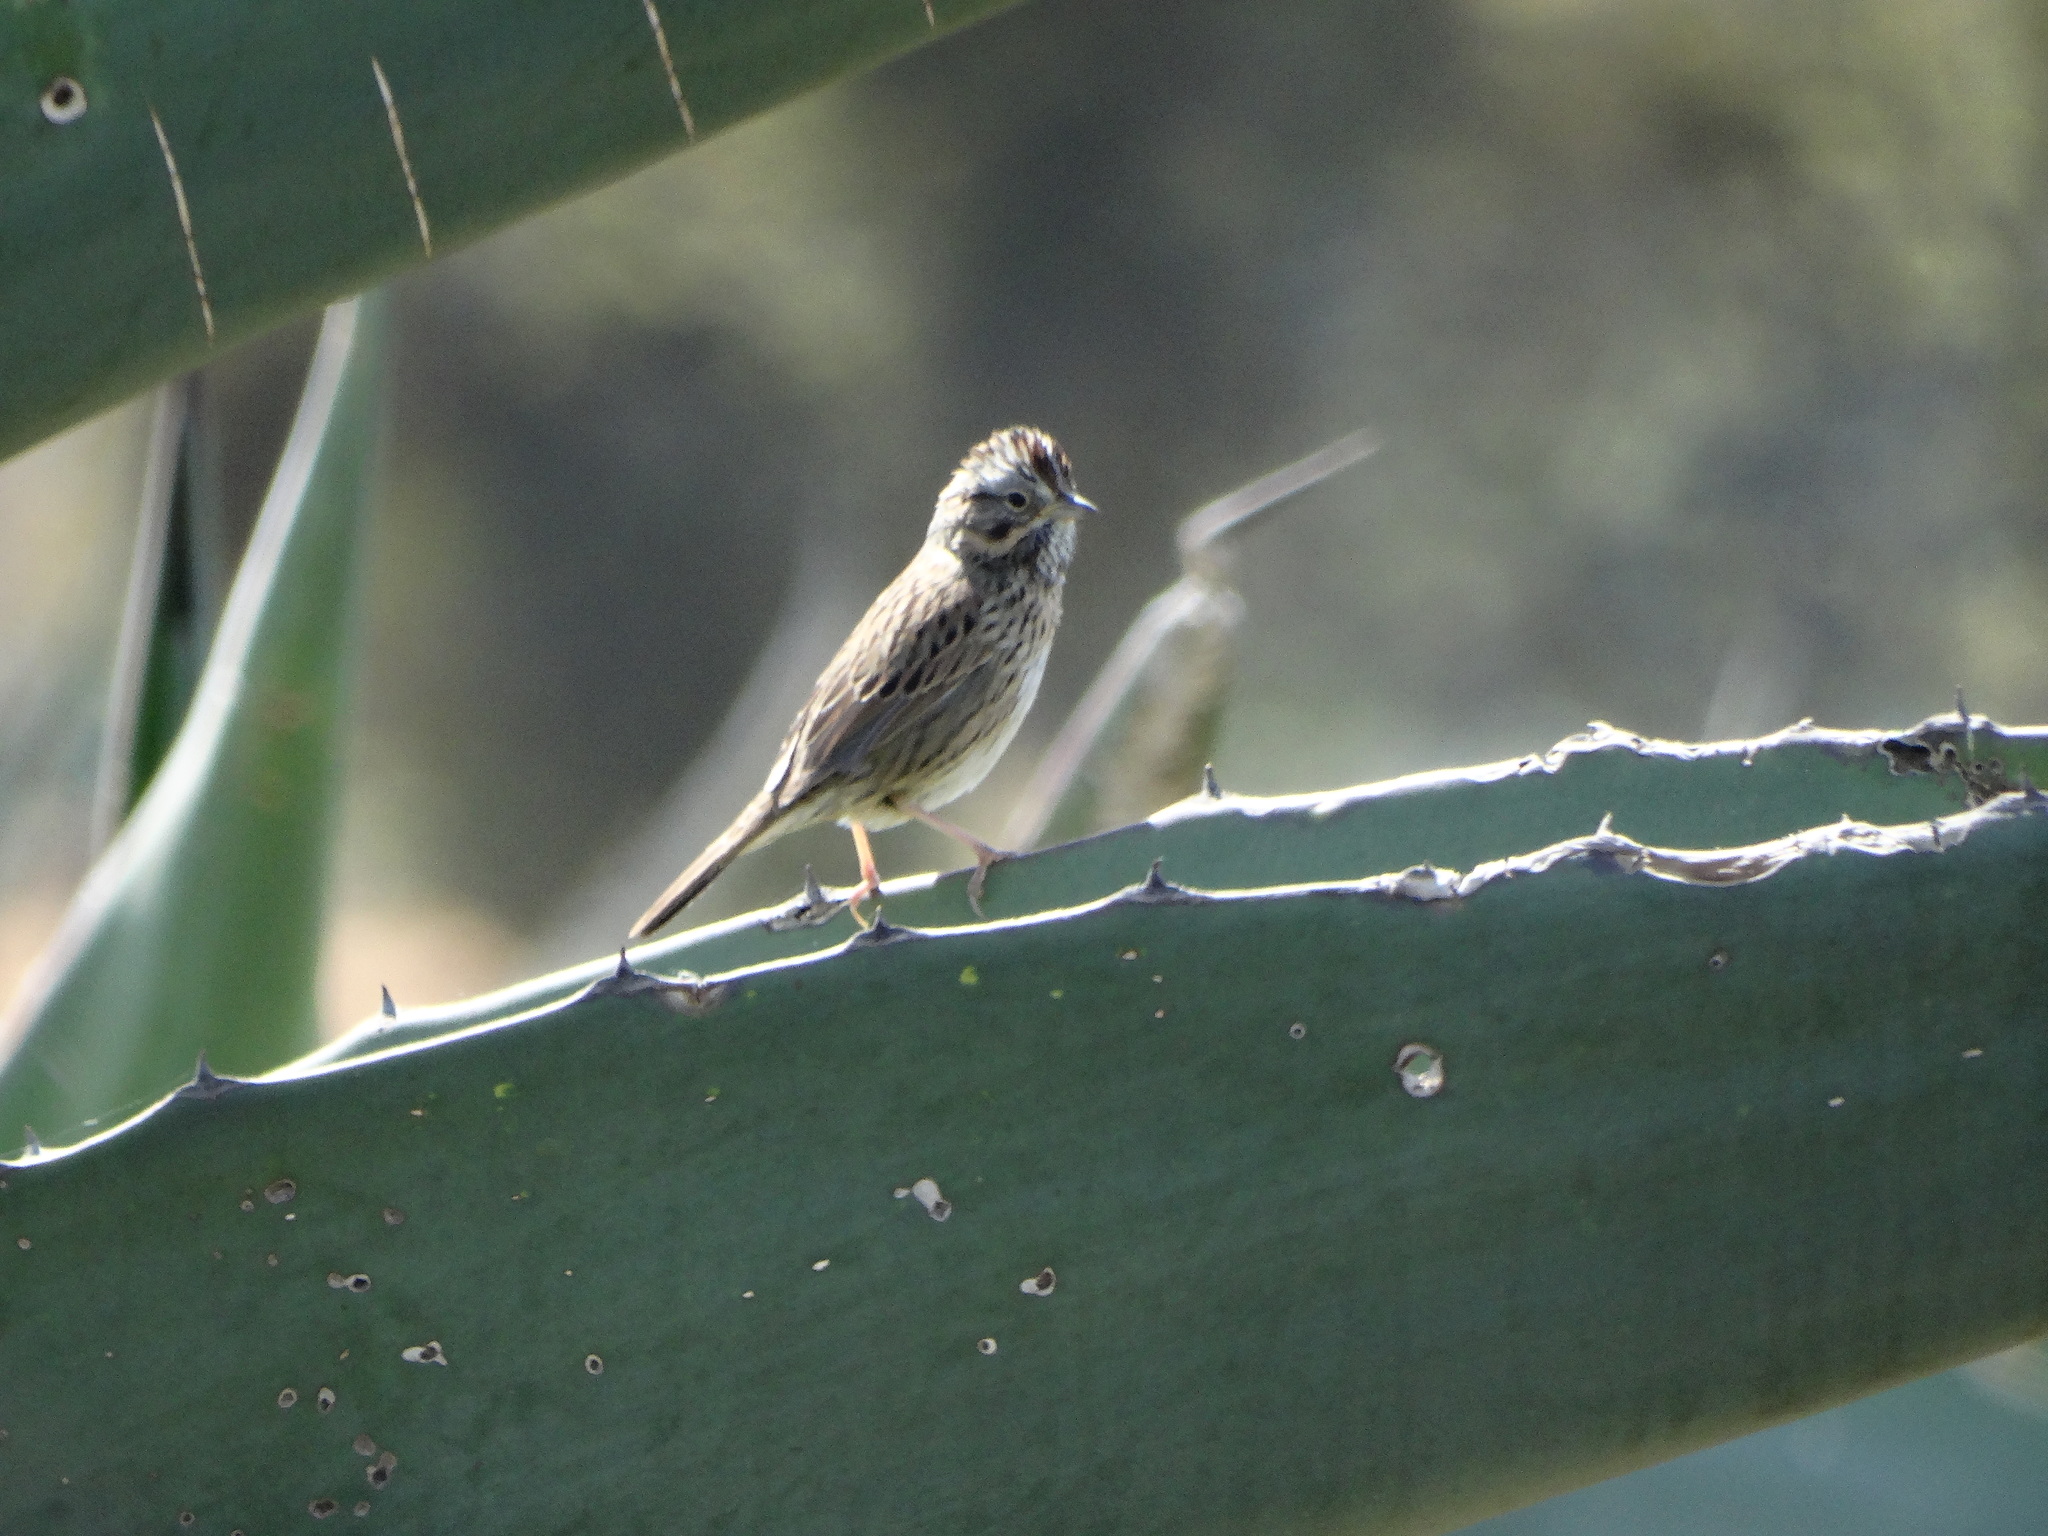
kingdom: Animalia
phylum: Chordata
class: Aves
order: Passeriformes
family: Passerellidae
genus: Melospiza
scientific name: Melospiza lincolnii
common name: Lincoln's sparrow
